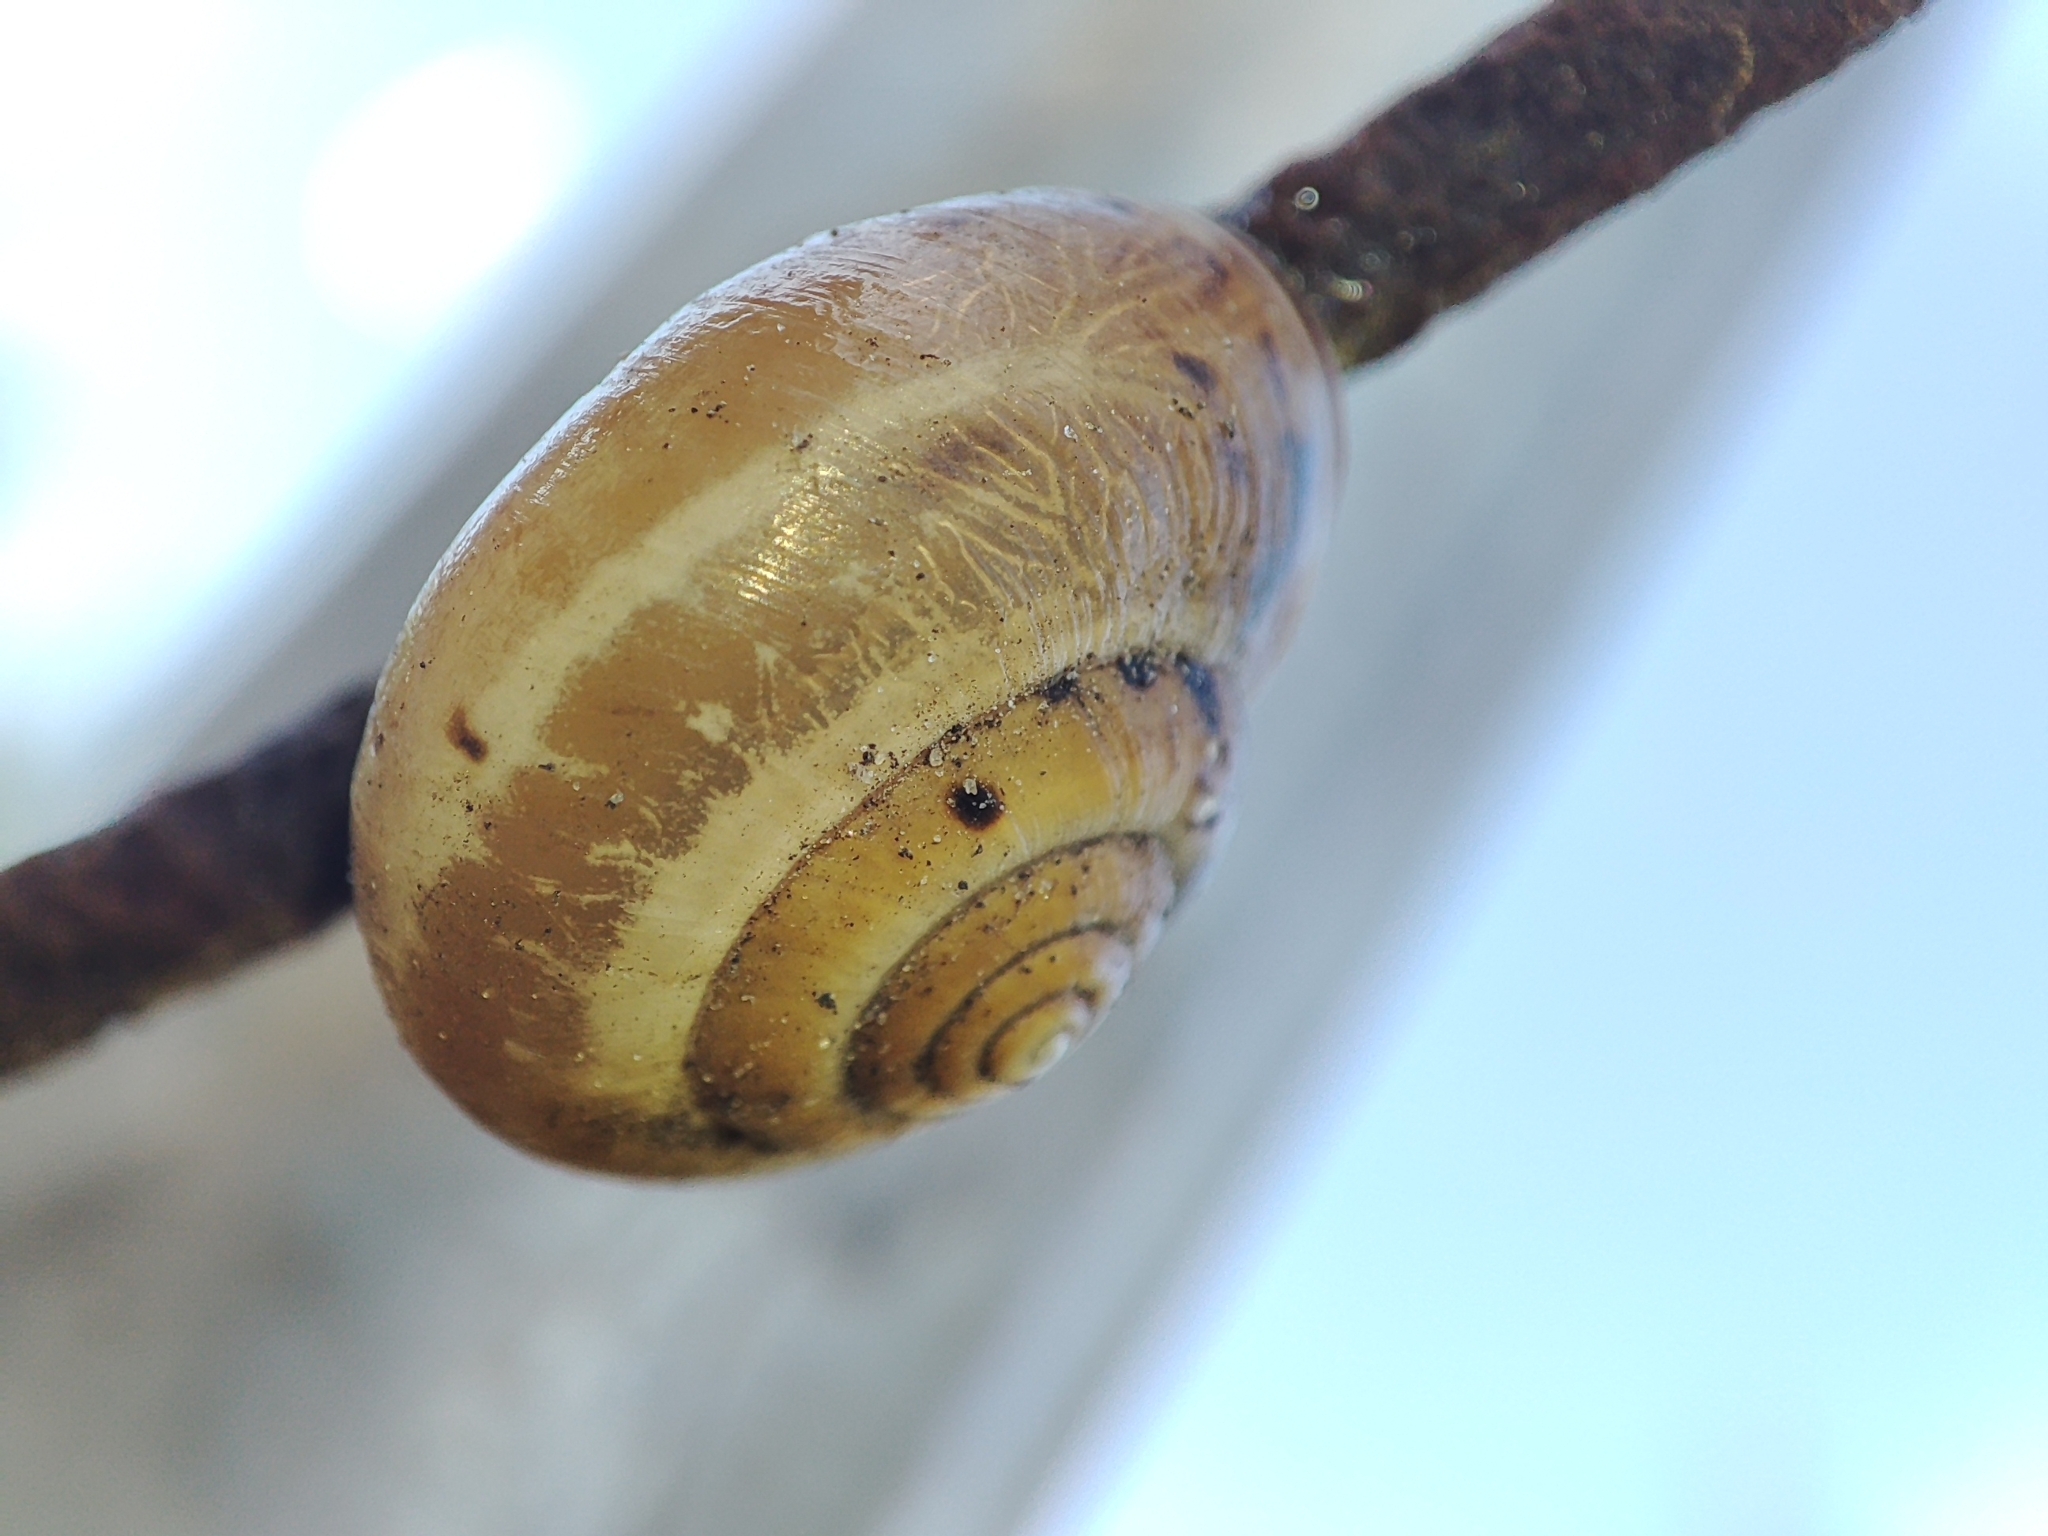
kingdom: Animalia
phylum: Mollusca
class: Gastropoda
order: Stylommatophora
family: Hygromiidae
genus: Monacha
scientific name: Monacha cartusiana
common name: Carthusian snail
